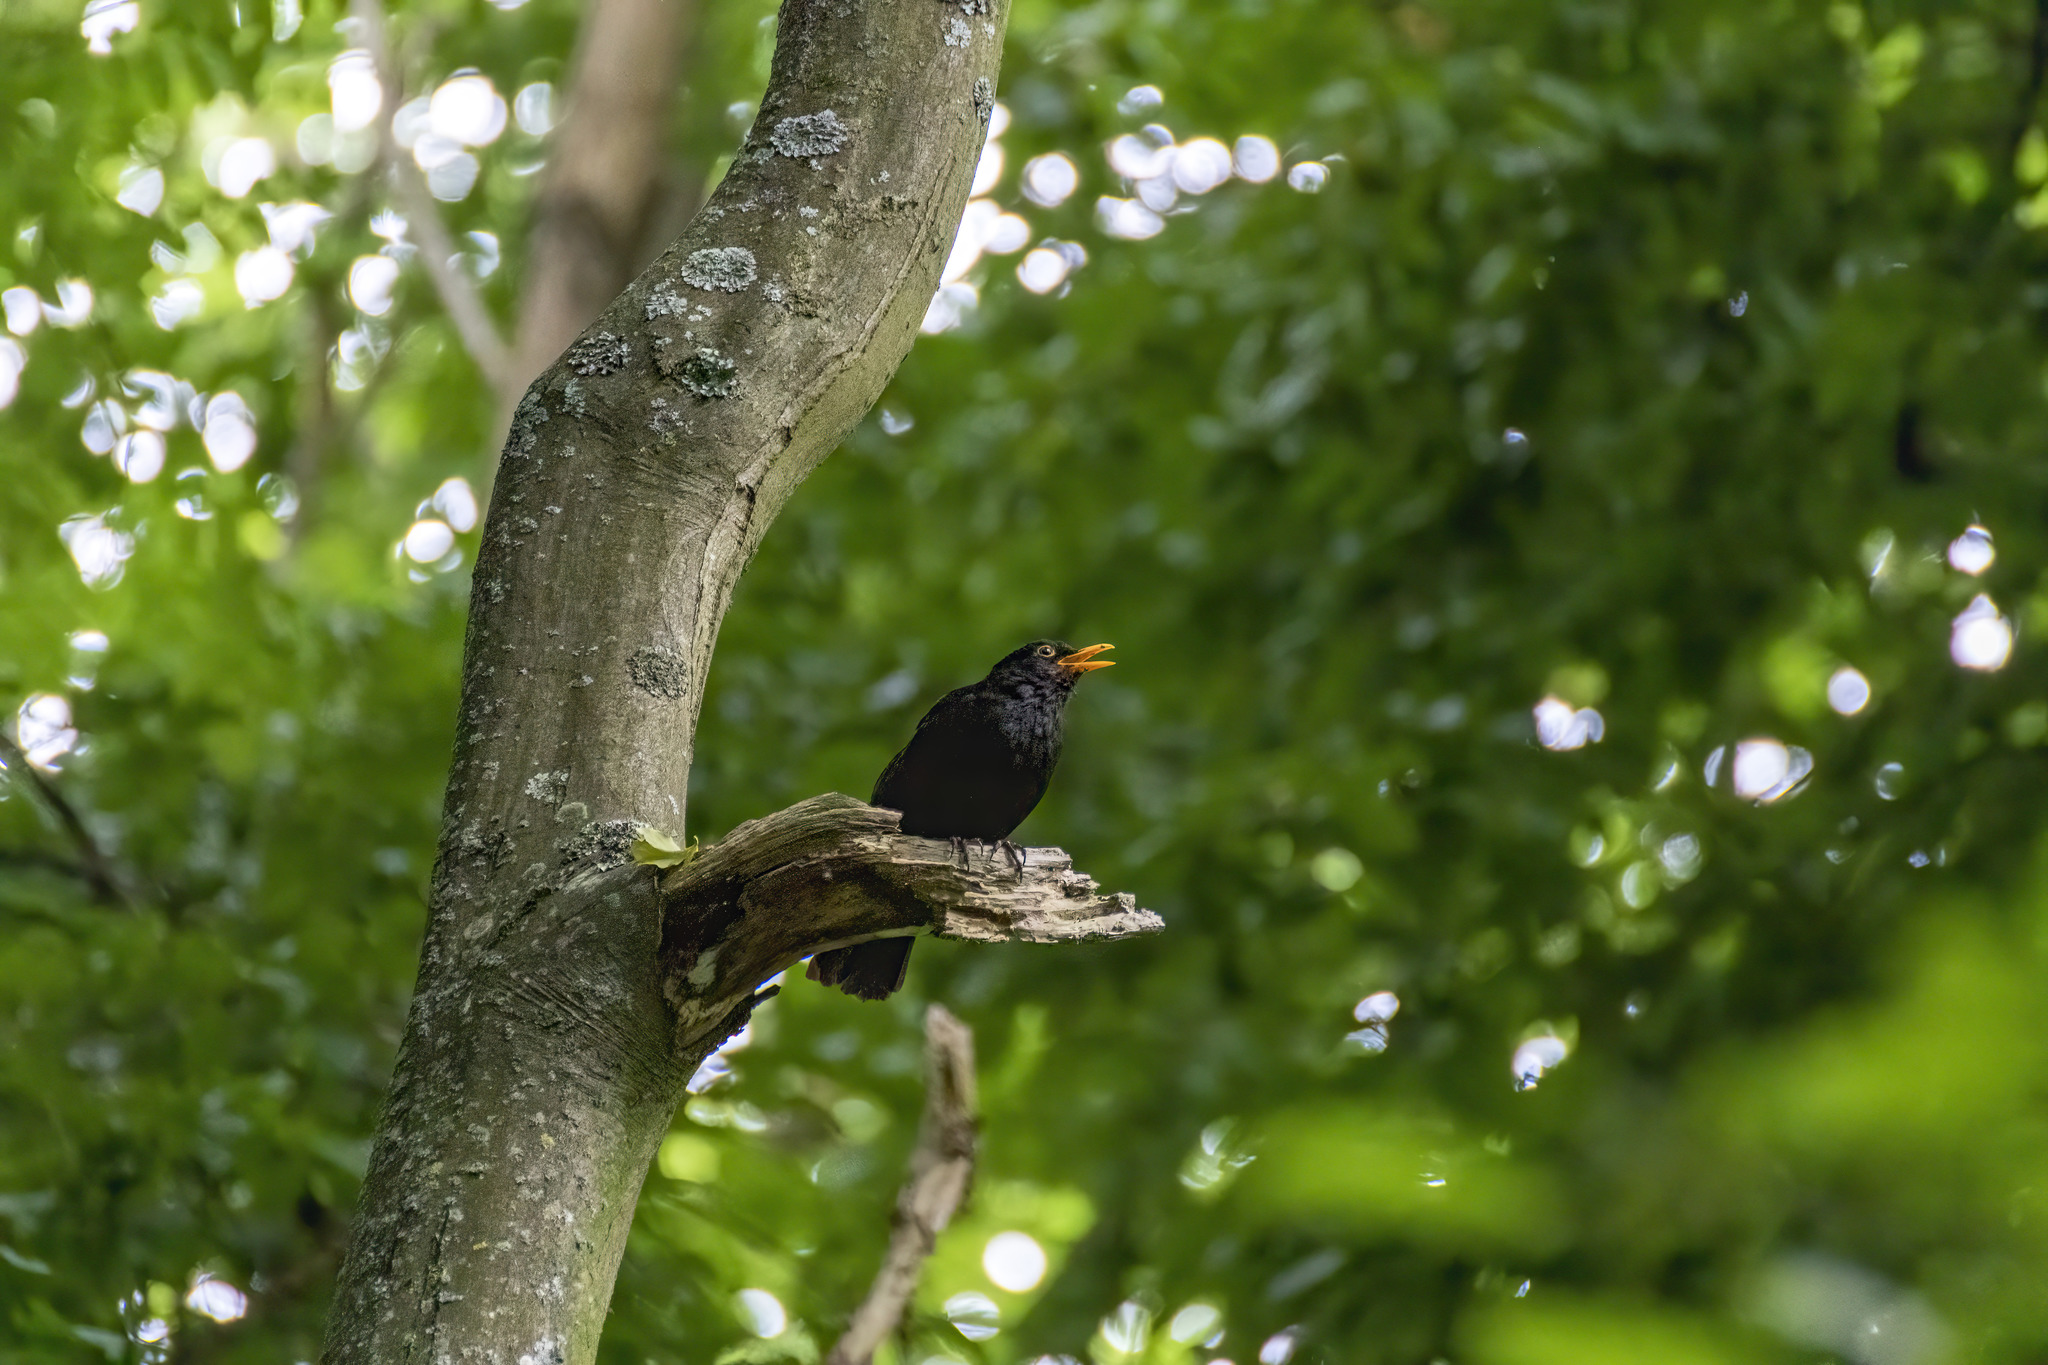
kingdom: Animalia
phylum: Chordata
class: Aves
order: Passeriformes
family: Turdidae
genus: Turdus
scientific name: Turdus merula
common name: Common blackbird
